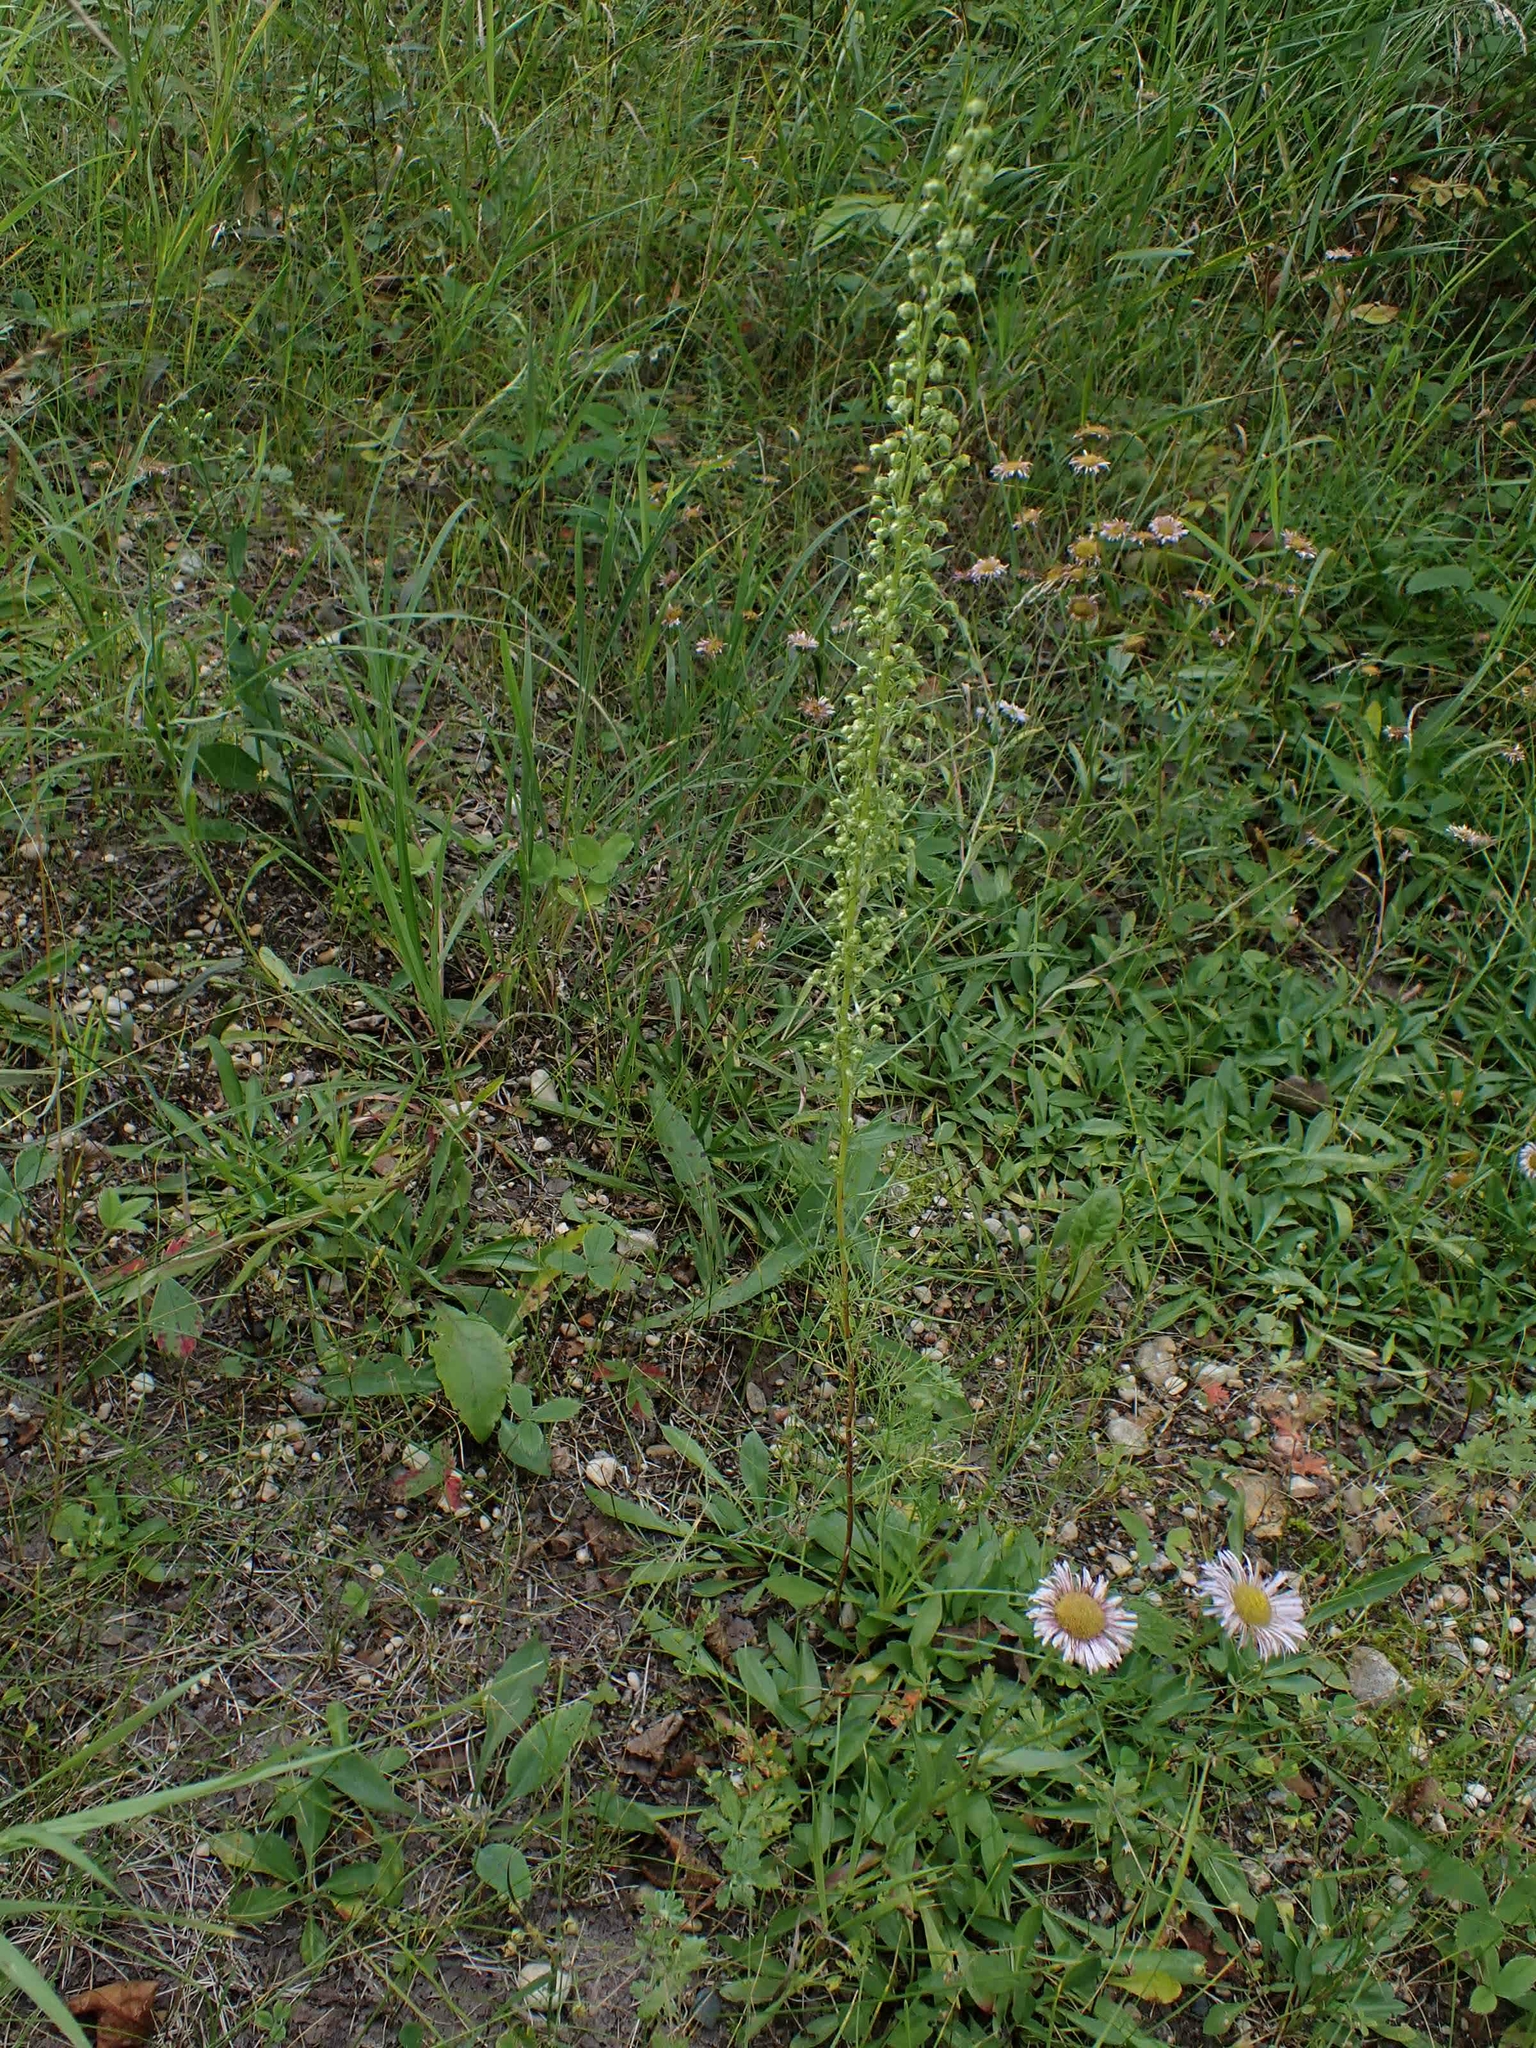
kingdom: Plantae
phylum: Tracheophyta
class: Magnoliopsida
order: Asterales
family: Asteraceae
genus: Artemisia
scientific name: Artemisia campestris
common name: Field wormwood
